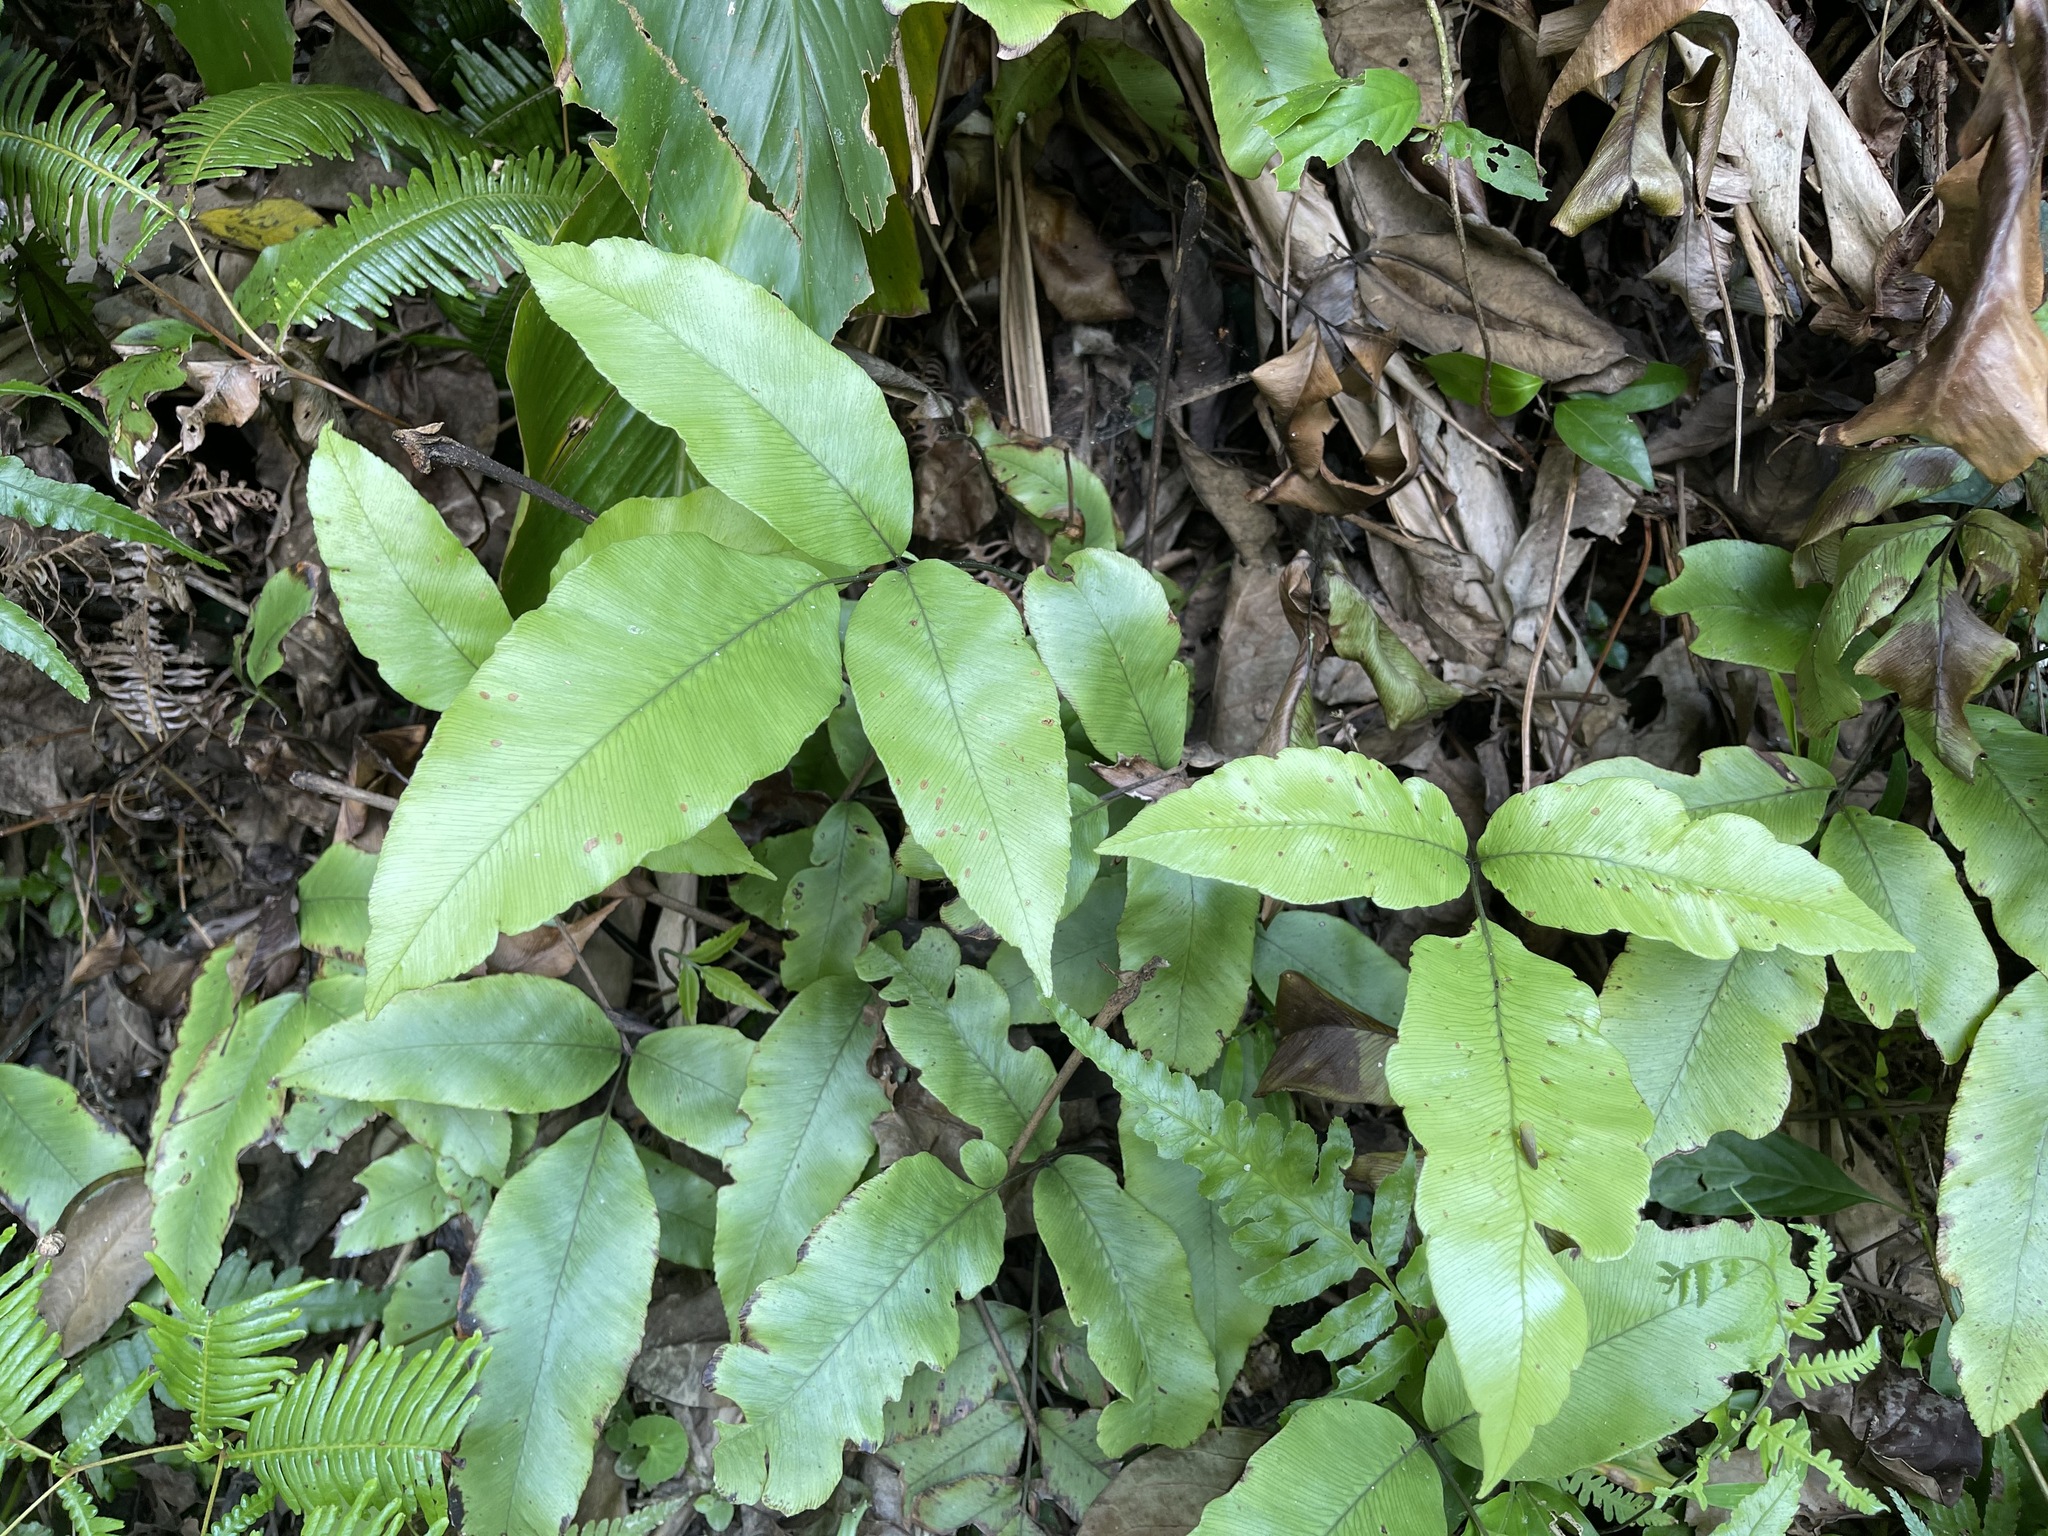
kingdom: Plantae
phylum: Tracheophyta
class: Polypodiopsida
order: Polypodiales
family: Athyriaceae
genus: Diplazium
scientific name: Diplazium lineolatum
